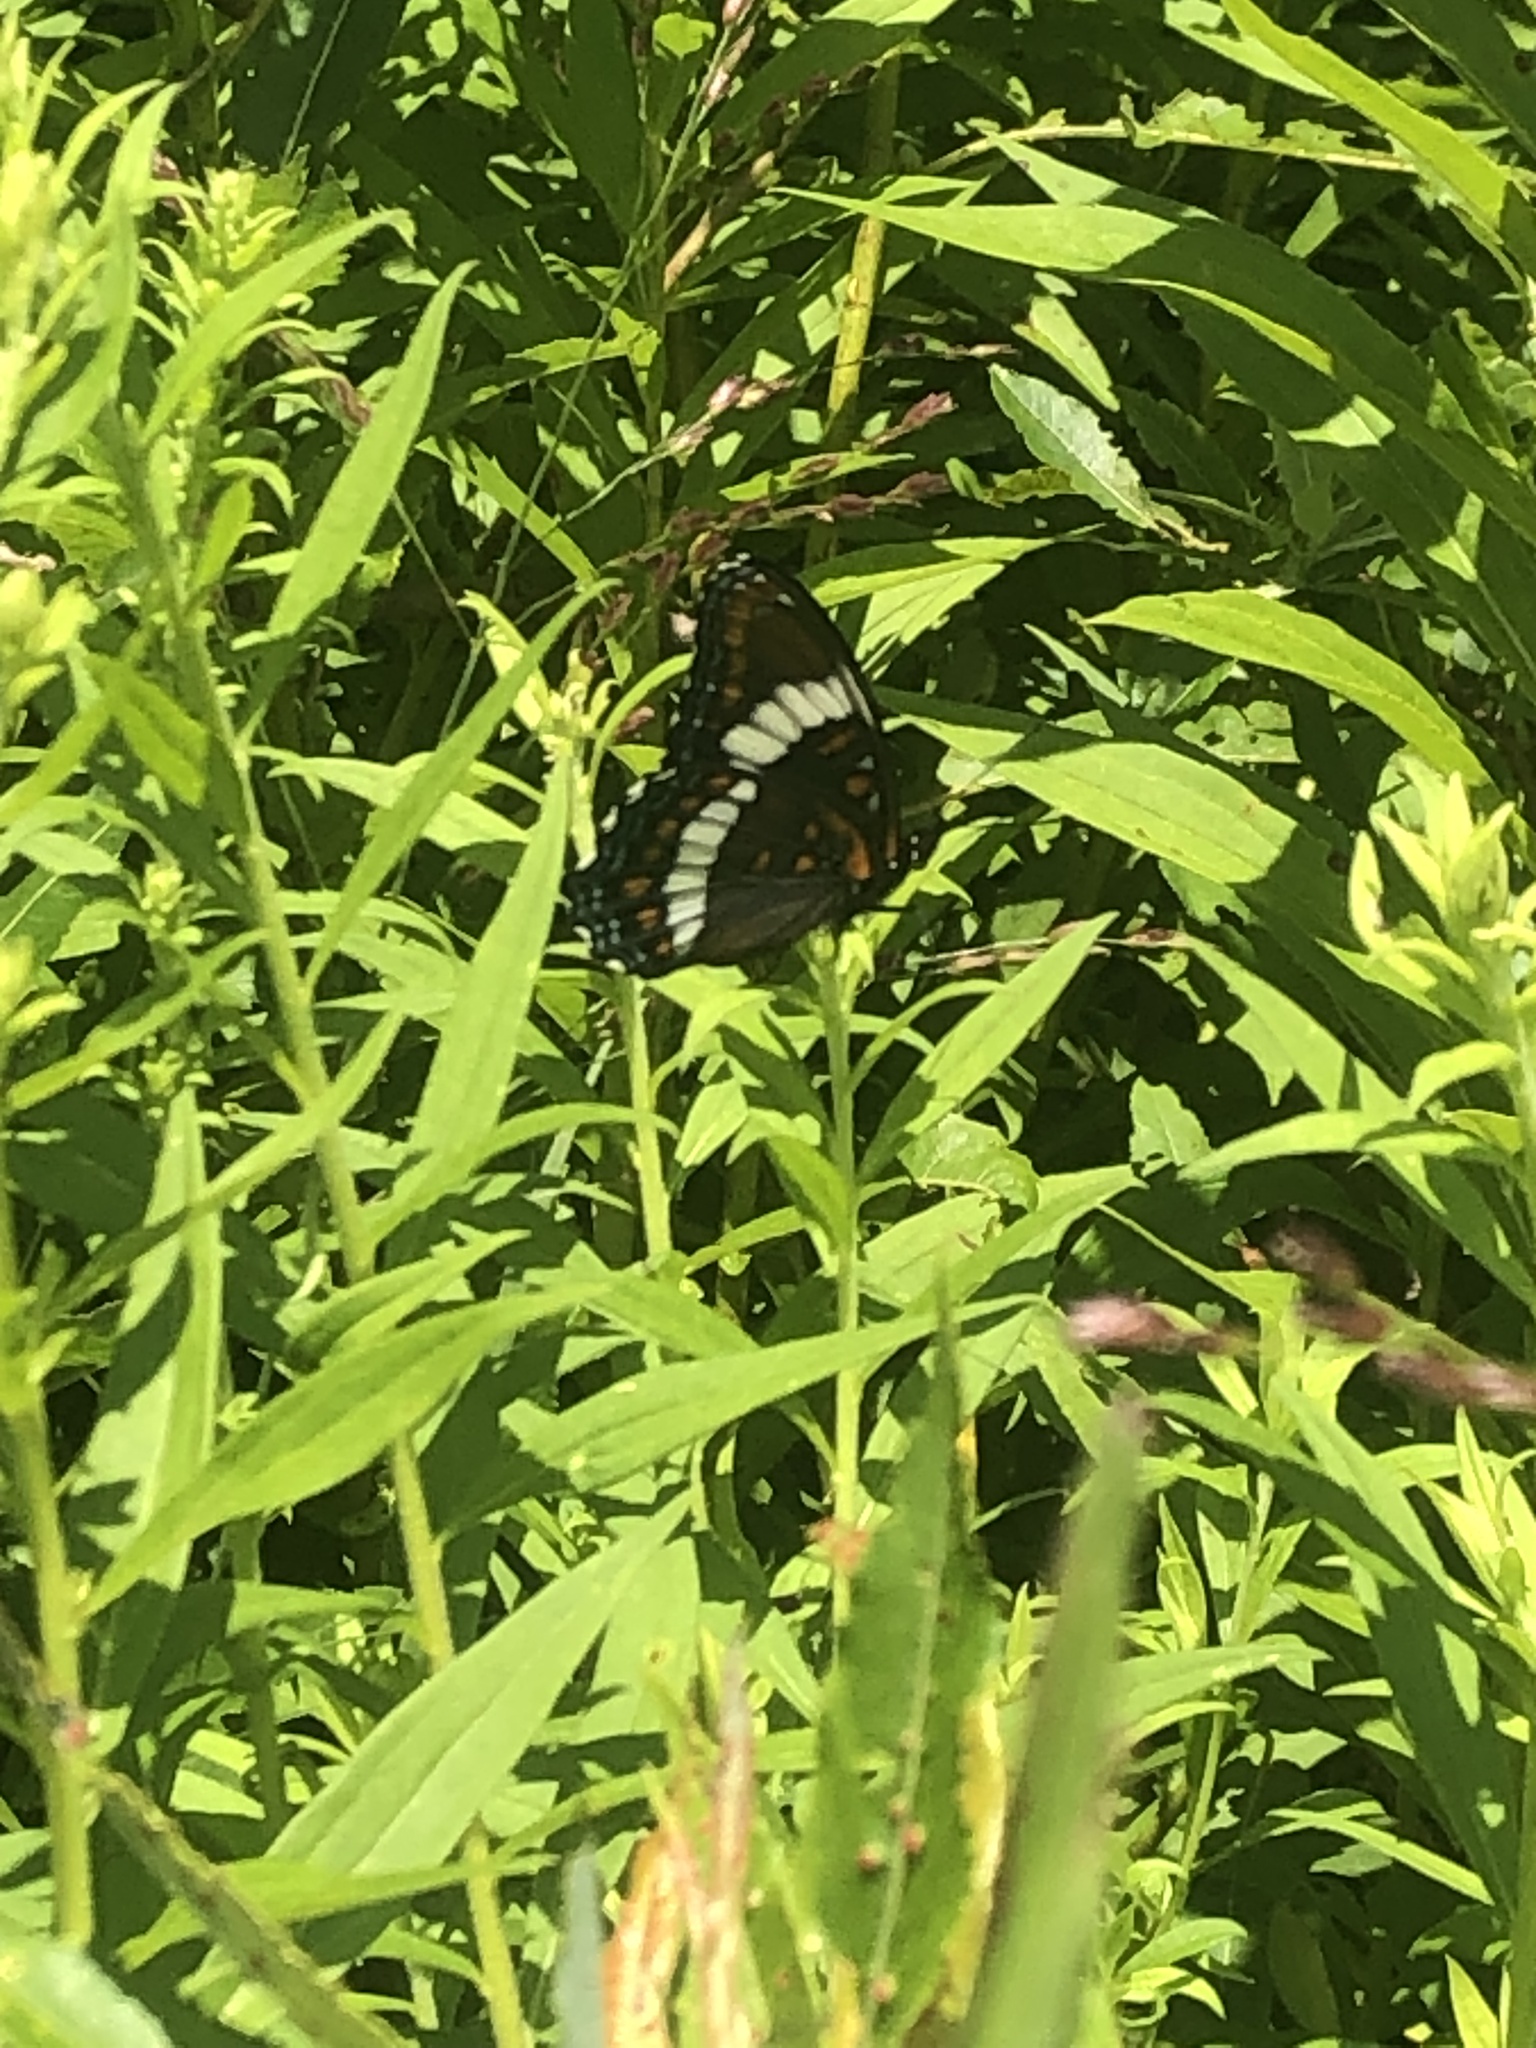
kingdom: Animalia
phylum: Arthropoda
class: Insecta
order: Lepidoptera
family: Nymphalidae
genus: Limenitis
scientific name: Limenitis arthemis
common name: Red-spotted admiral
